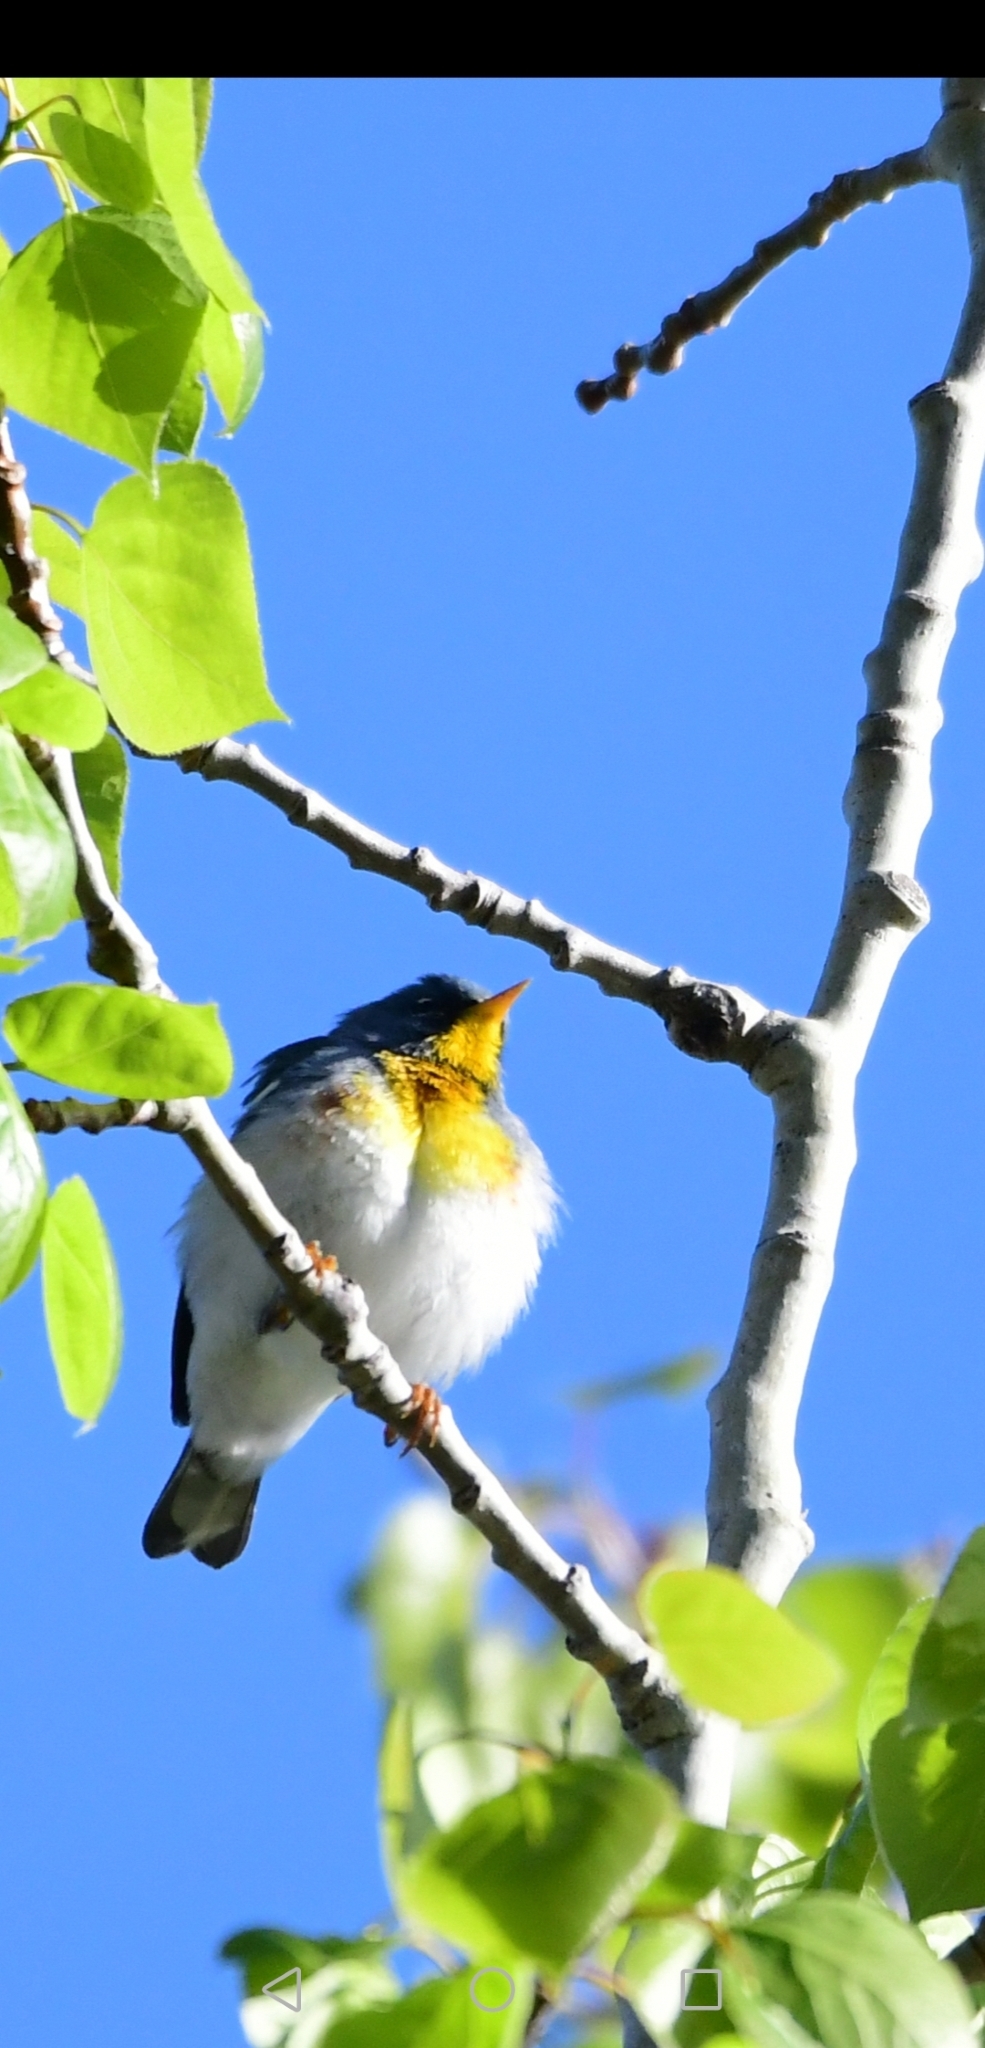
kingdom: Animalia
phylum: Chordata
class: Aves
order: Passeriformes
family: Parulidae
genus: Setophaga
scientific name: Setophaga americana
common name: Northern parula
